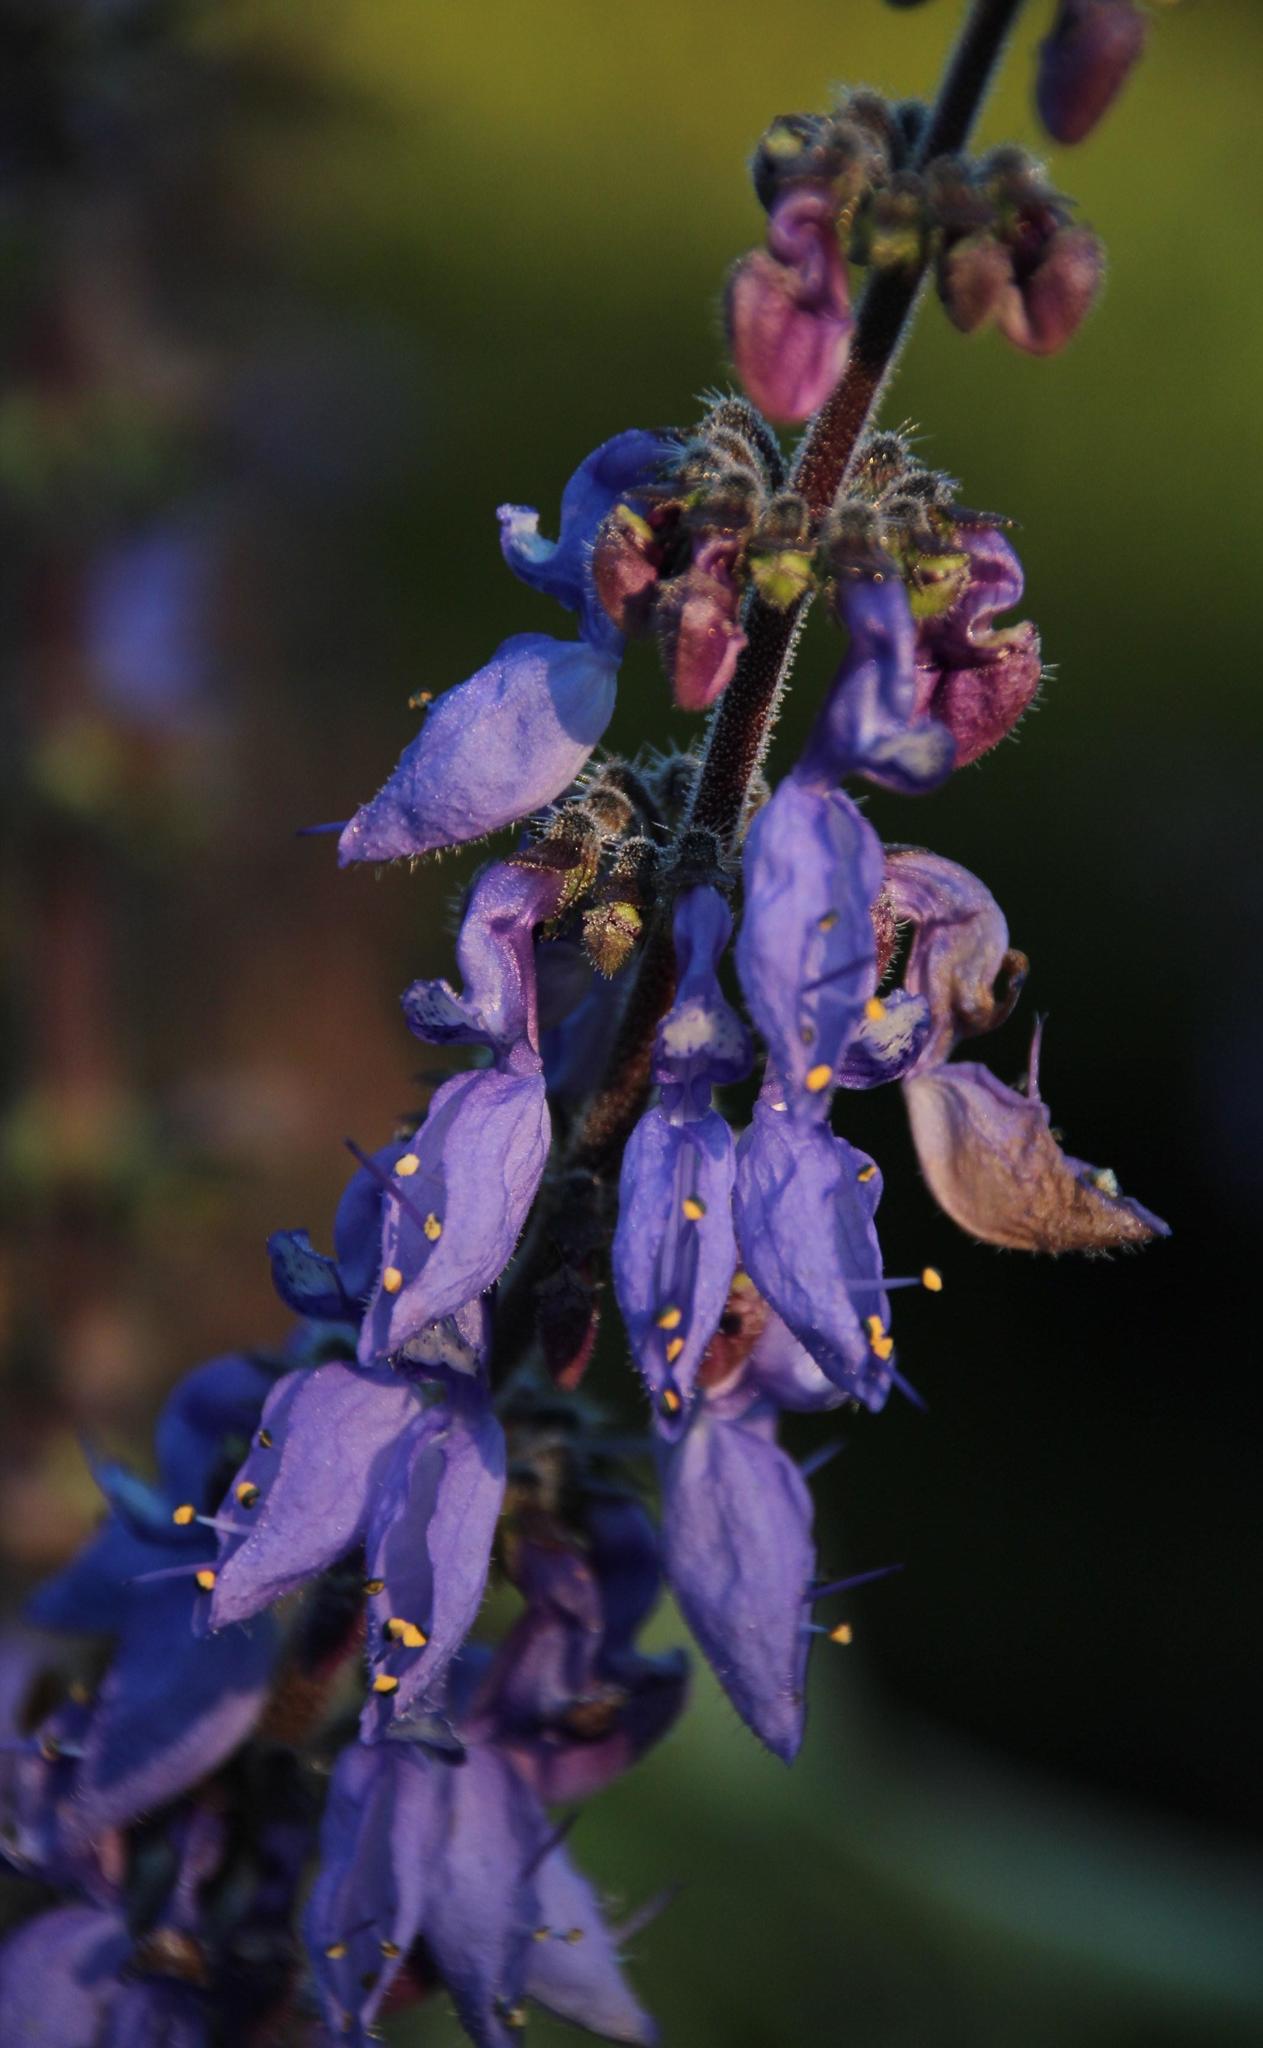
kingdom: Plantae
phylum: Tracheophyta
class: Magnoliopsida
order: Lamiales
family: Lamiaceae
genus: Coleus
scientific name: Coleus barbatus
